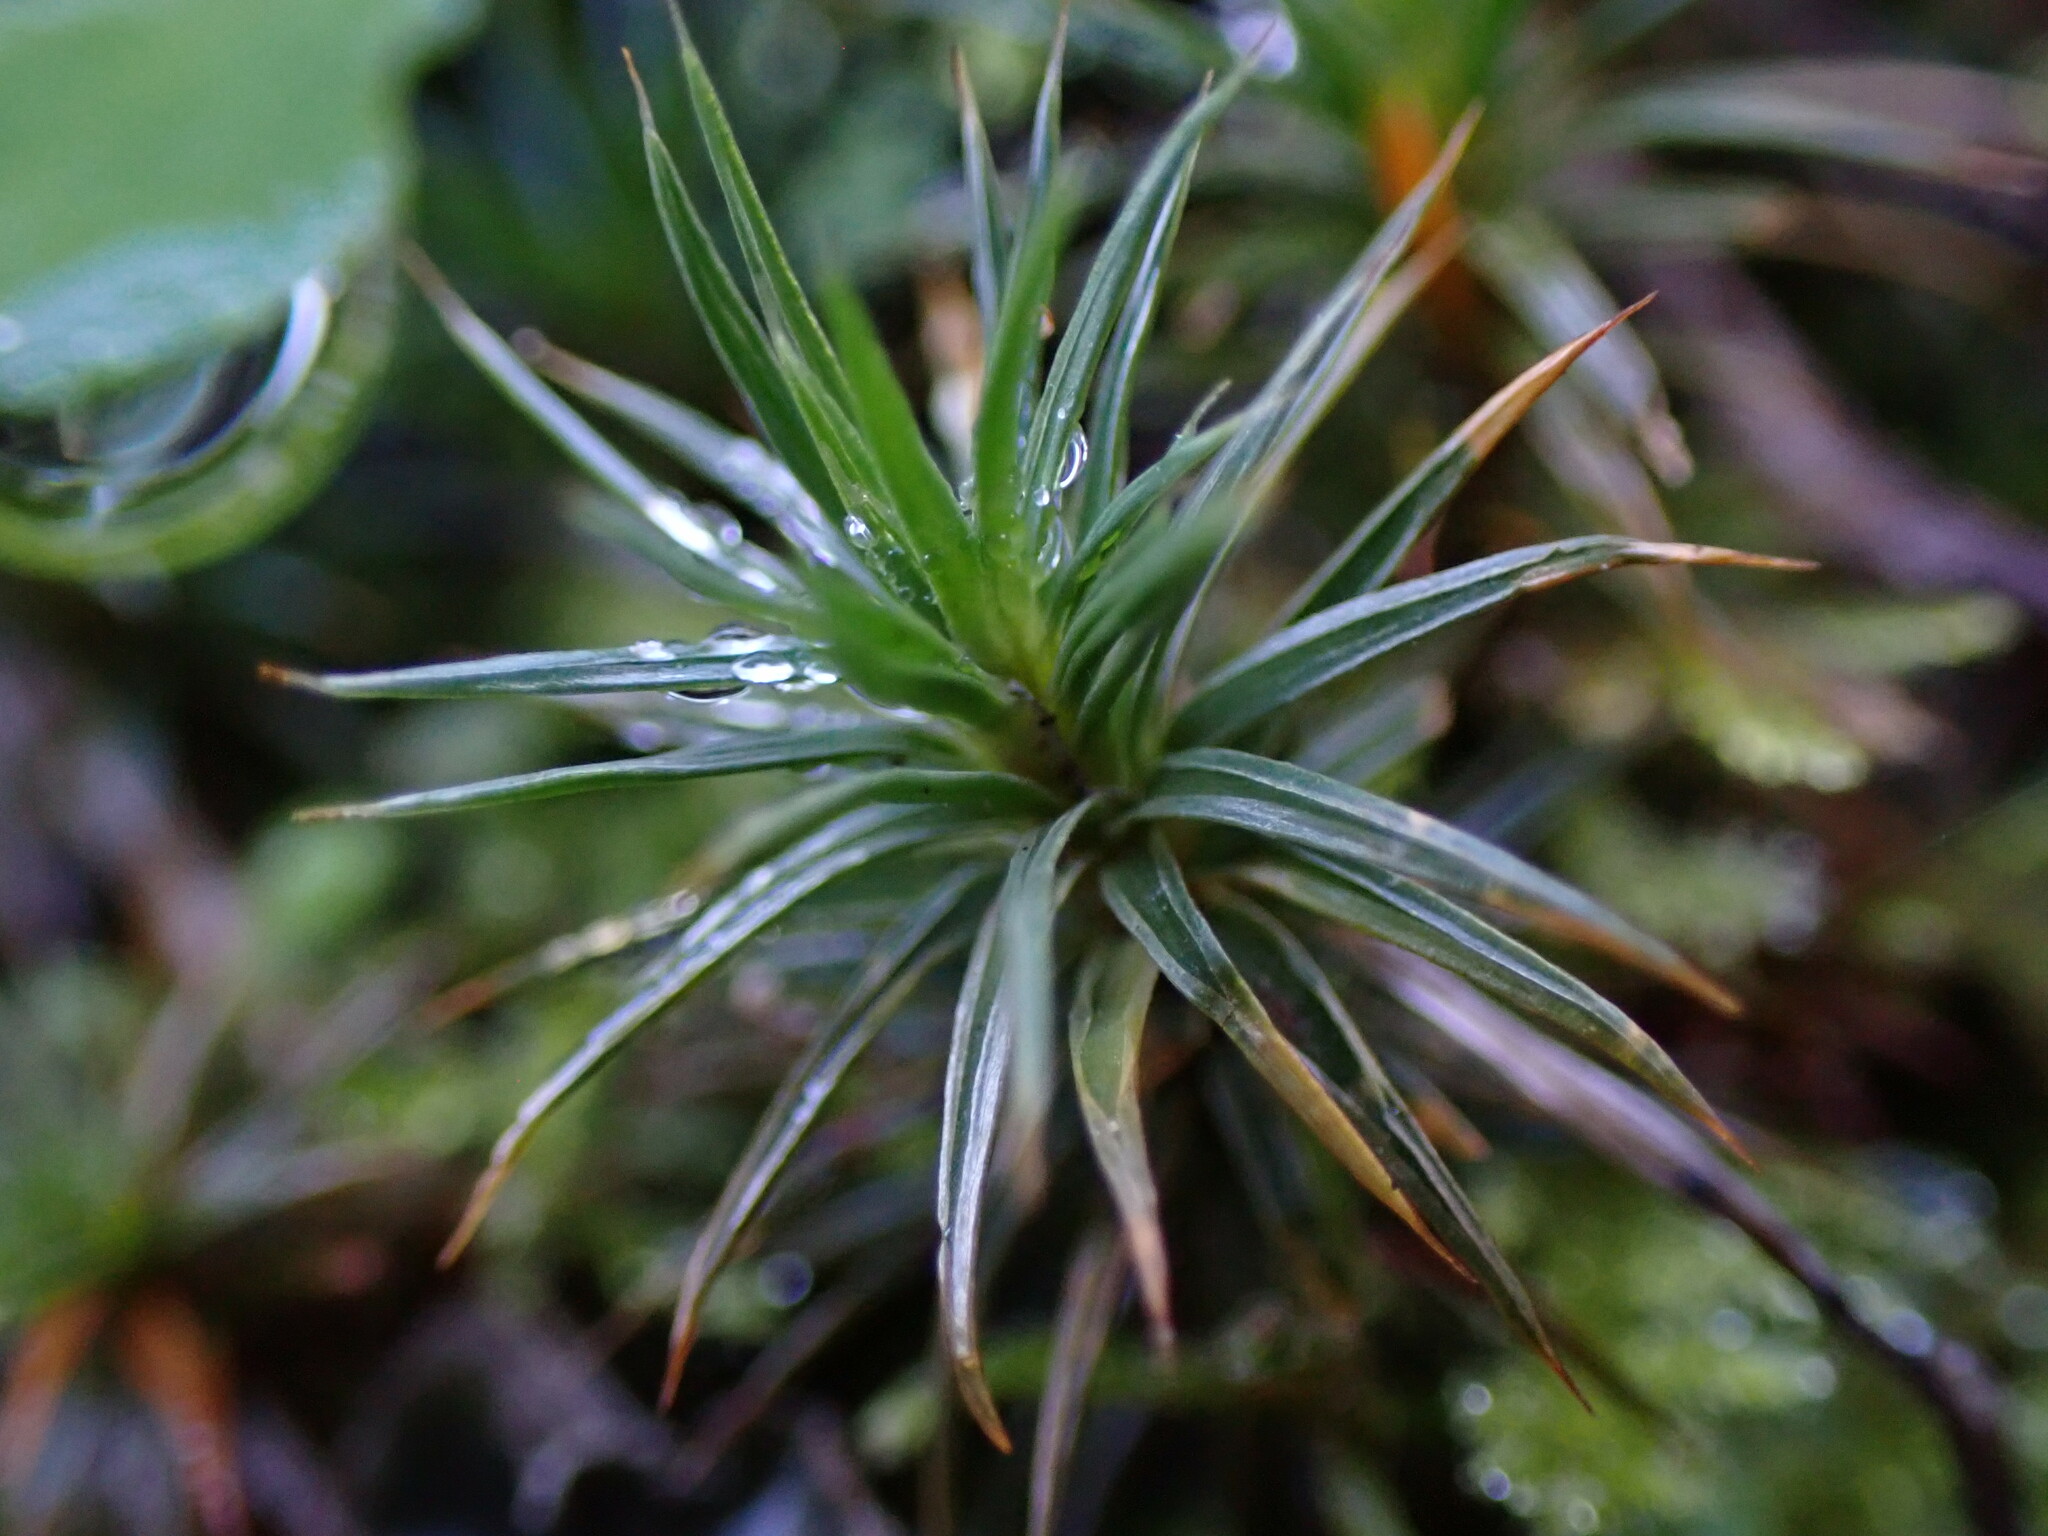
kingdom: Plantae
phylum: Bryophyta
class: Polytrichopsida
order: Polytrichales
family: Polytrichaceae
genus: Polytrichum
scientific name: Polytrichum juniperinum
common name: Juniper haircap moss
